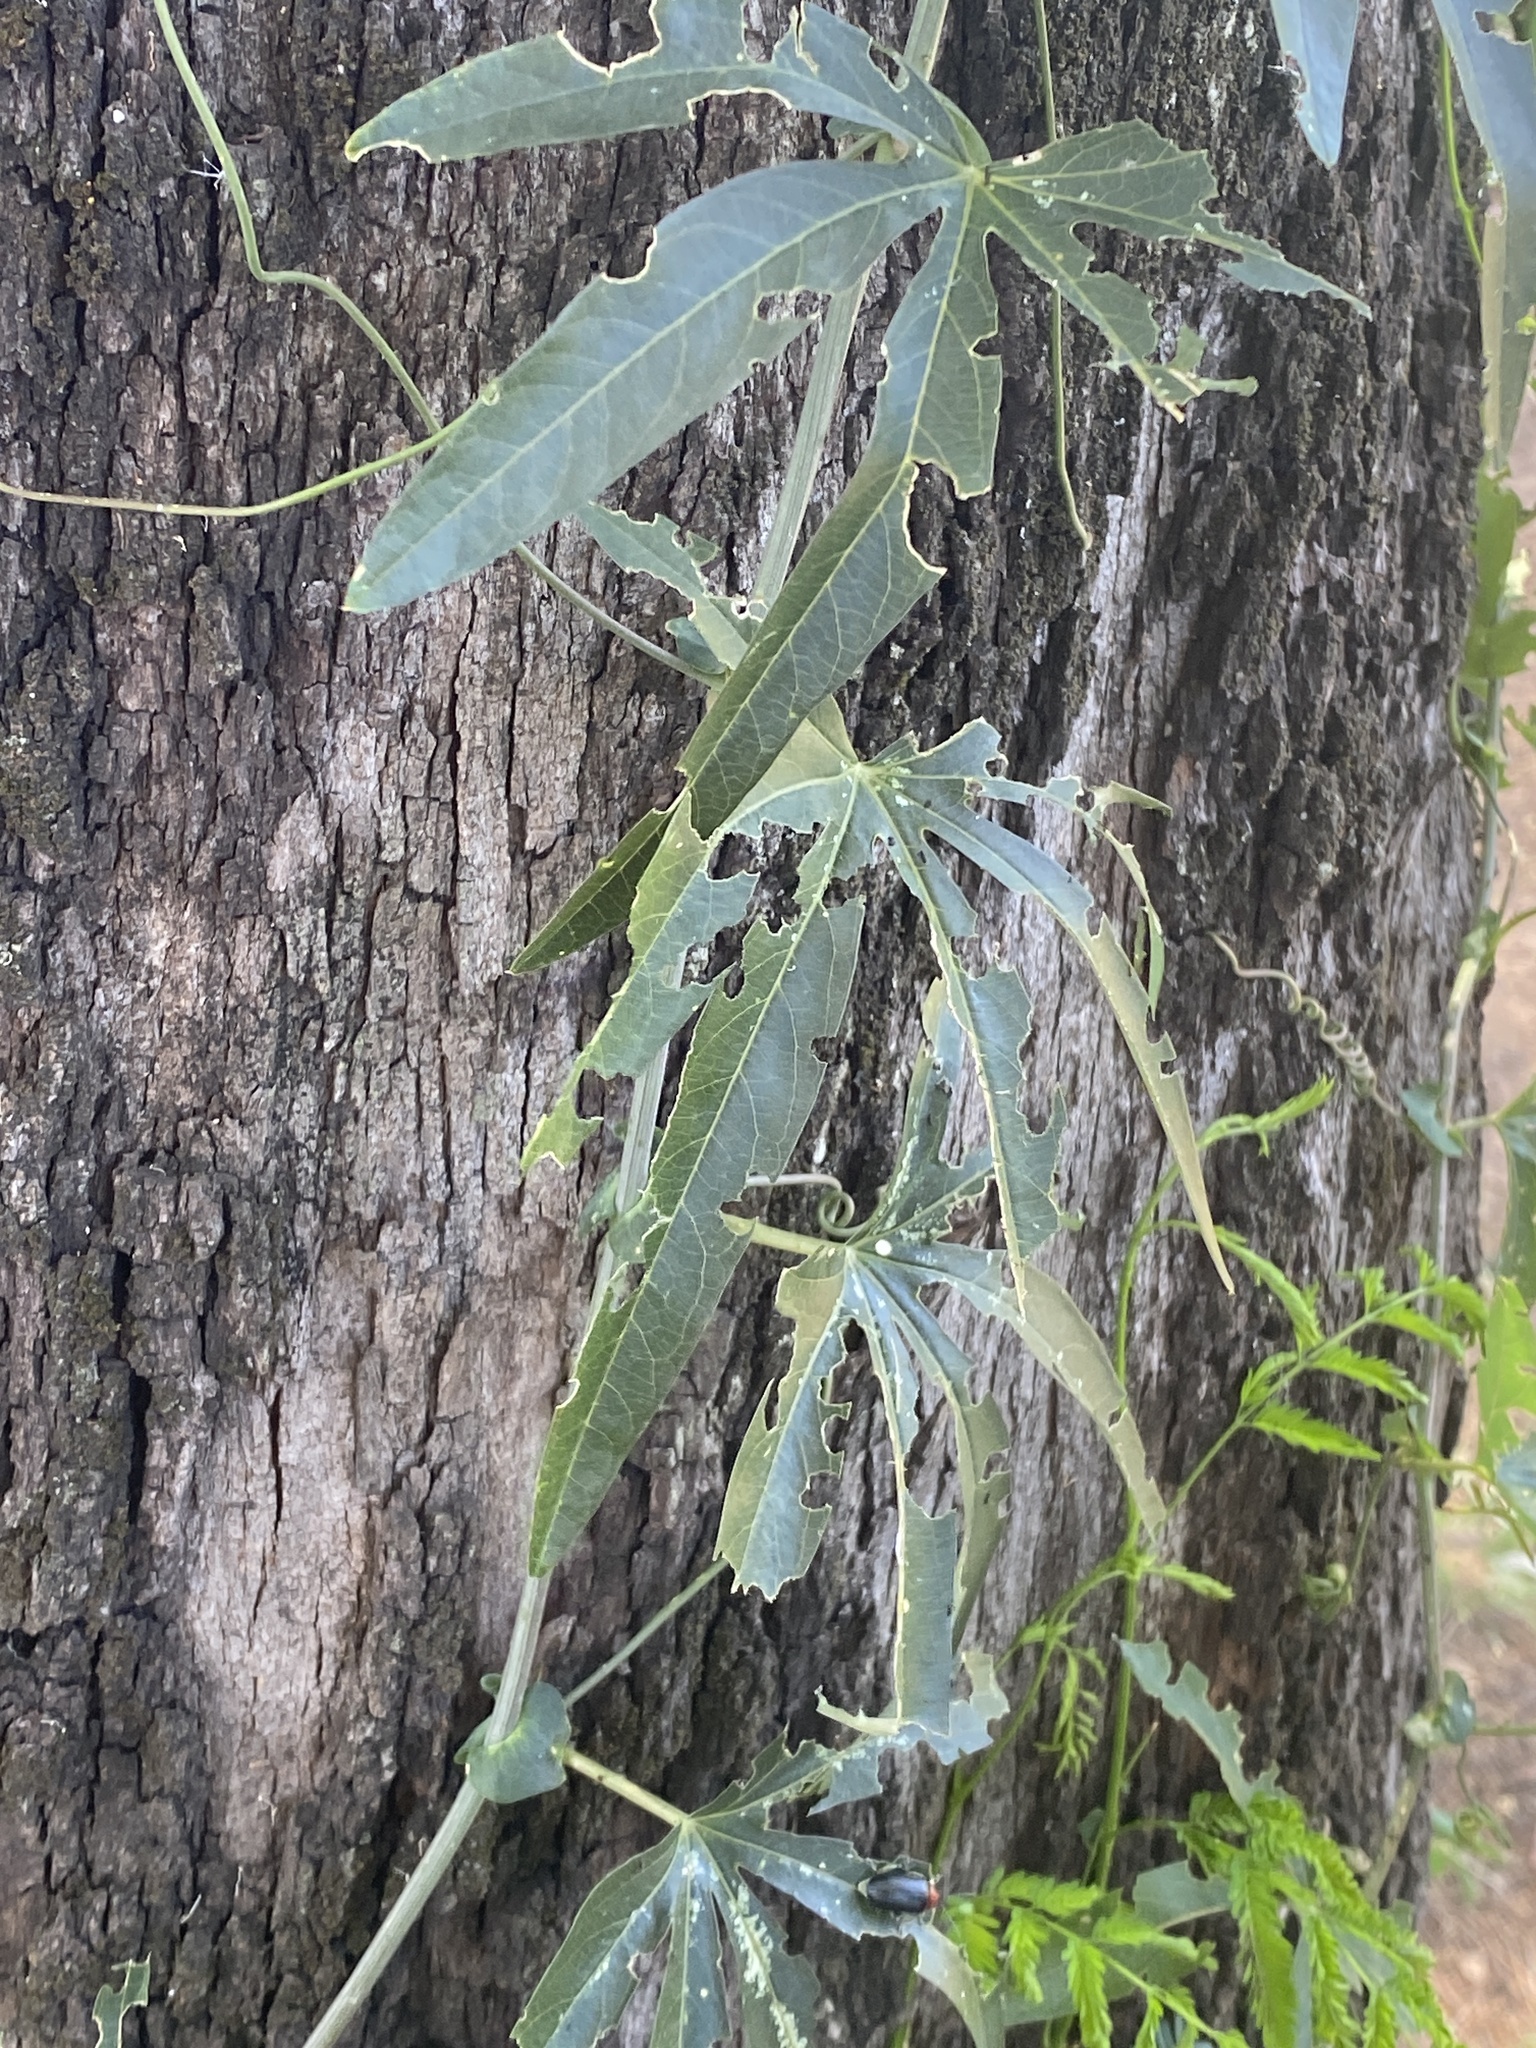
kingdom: Plantae
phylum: Tracheophyta
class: Magnoliopsida
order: Malpighiales
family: Passifloraceae
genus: Passiflora
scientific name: Passiflora caerulea
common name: Blue passionflower
